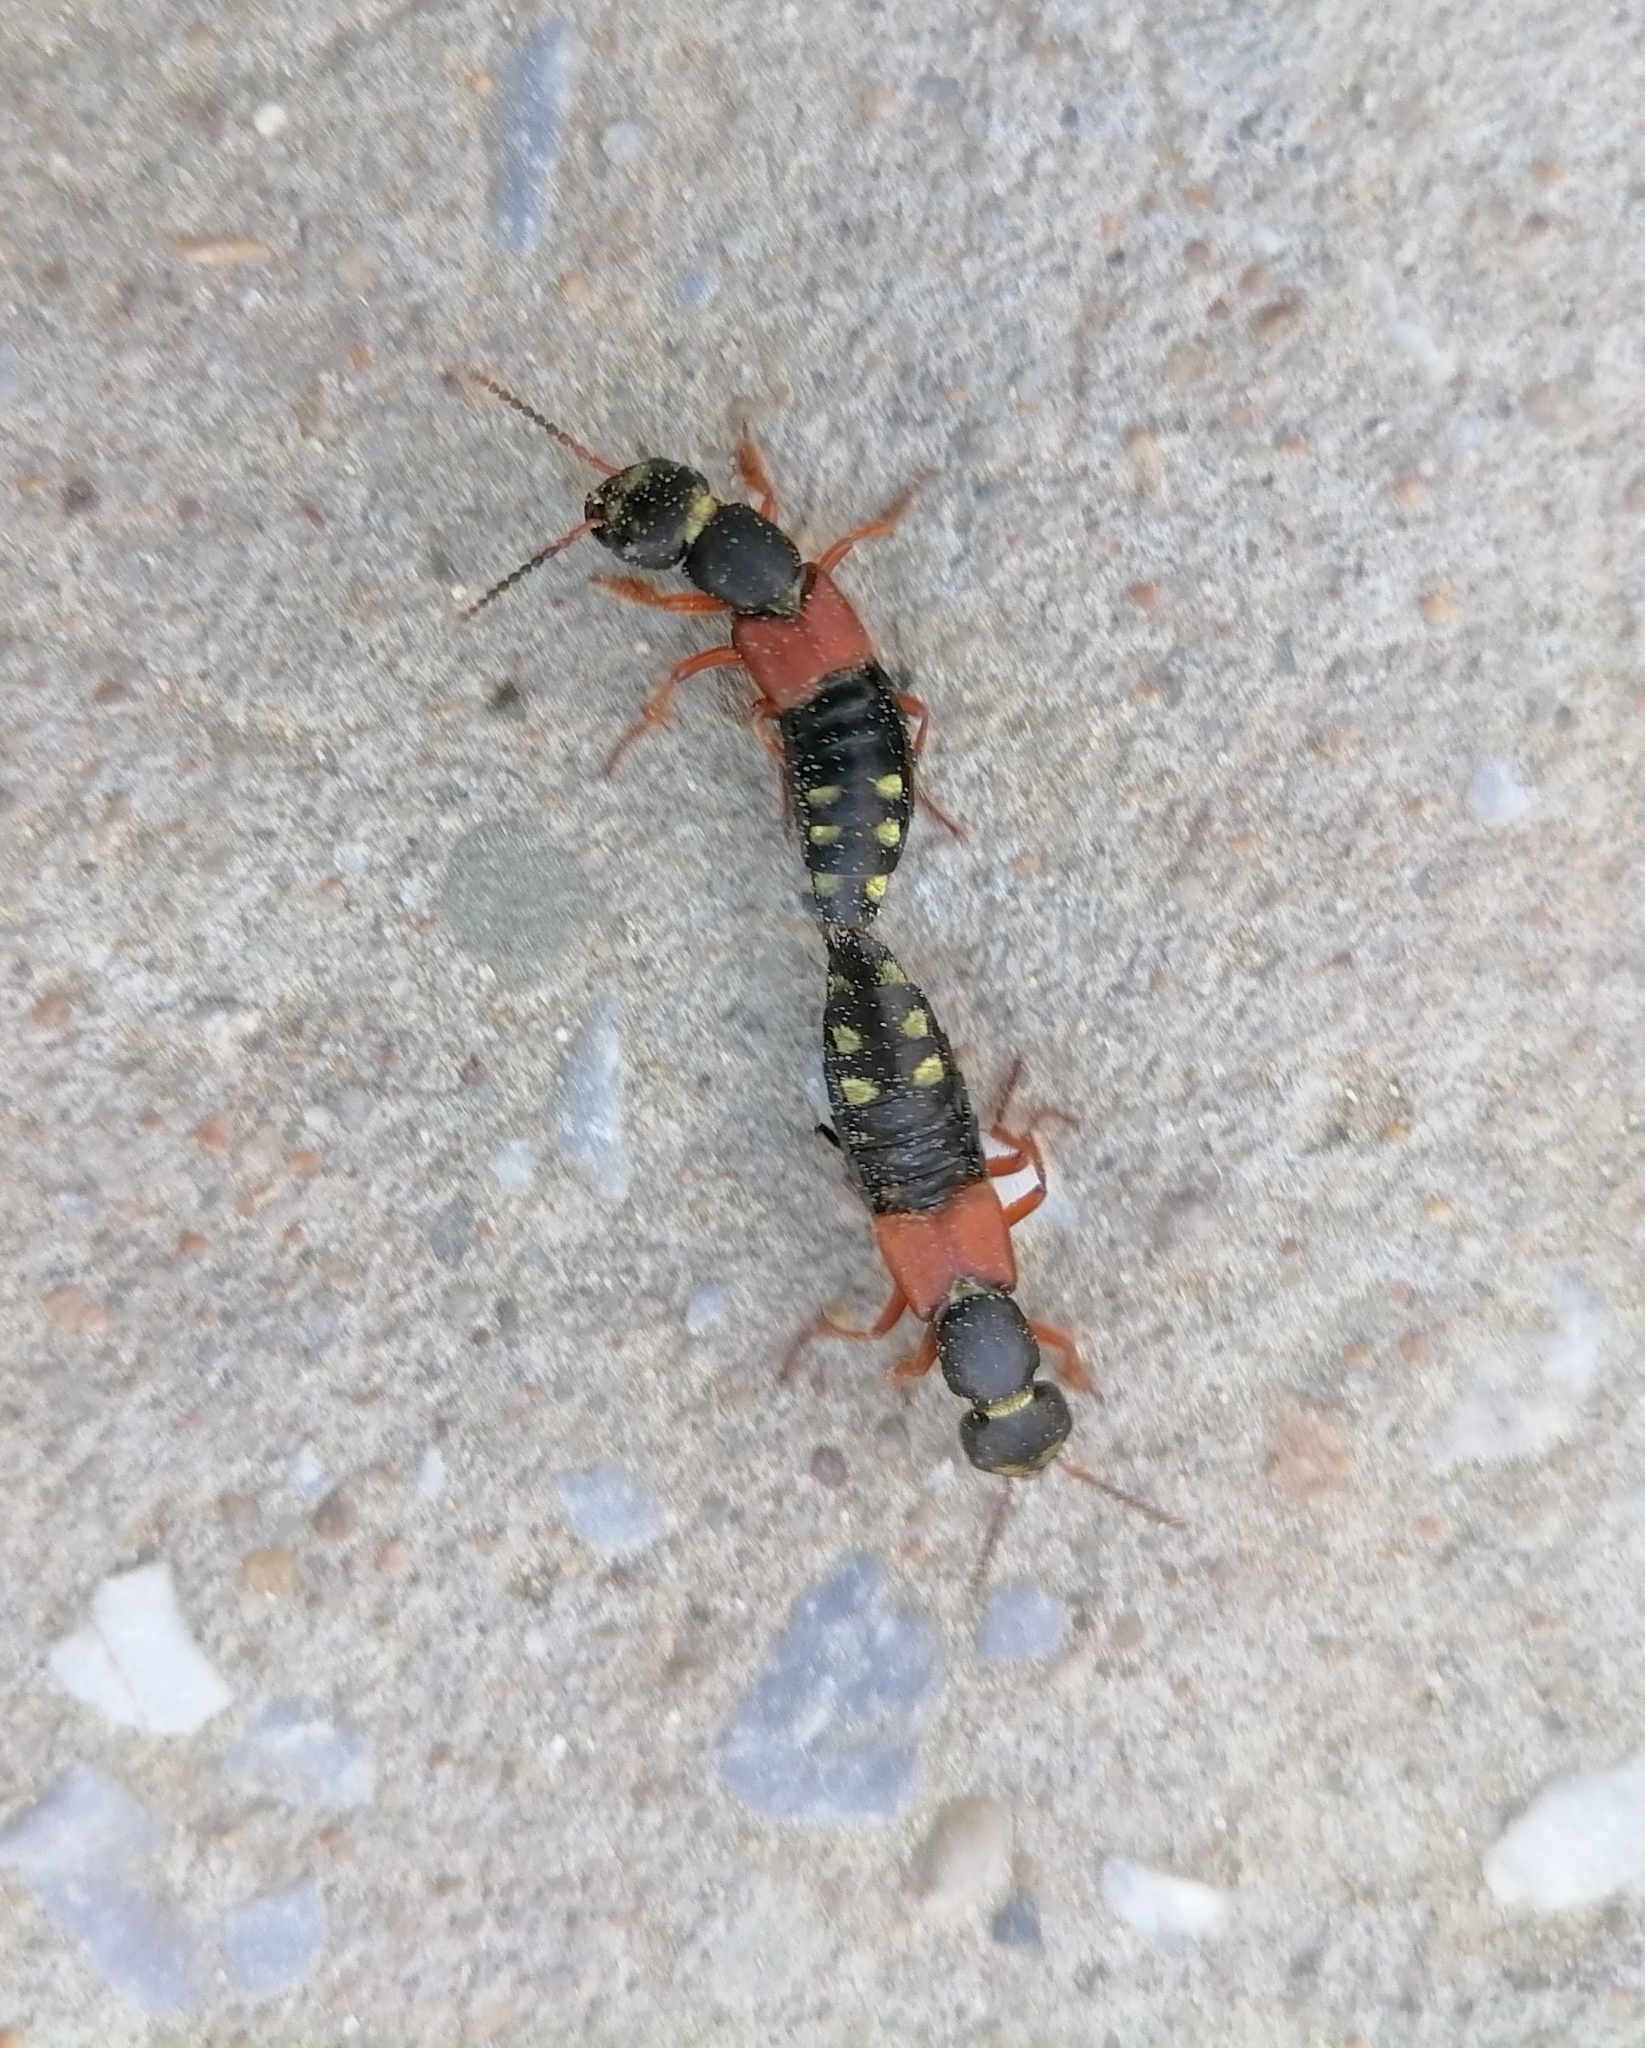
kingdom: Animalia
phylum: Arthropoda
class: Insecta
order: Coleoptera
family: Staphylinidae
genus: Staphylinus
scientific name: Staphylinus erythropterus
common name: Staph beetle
